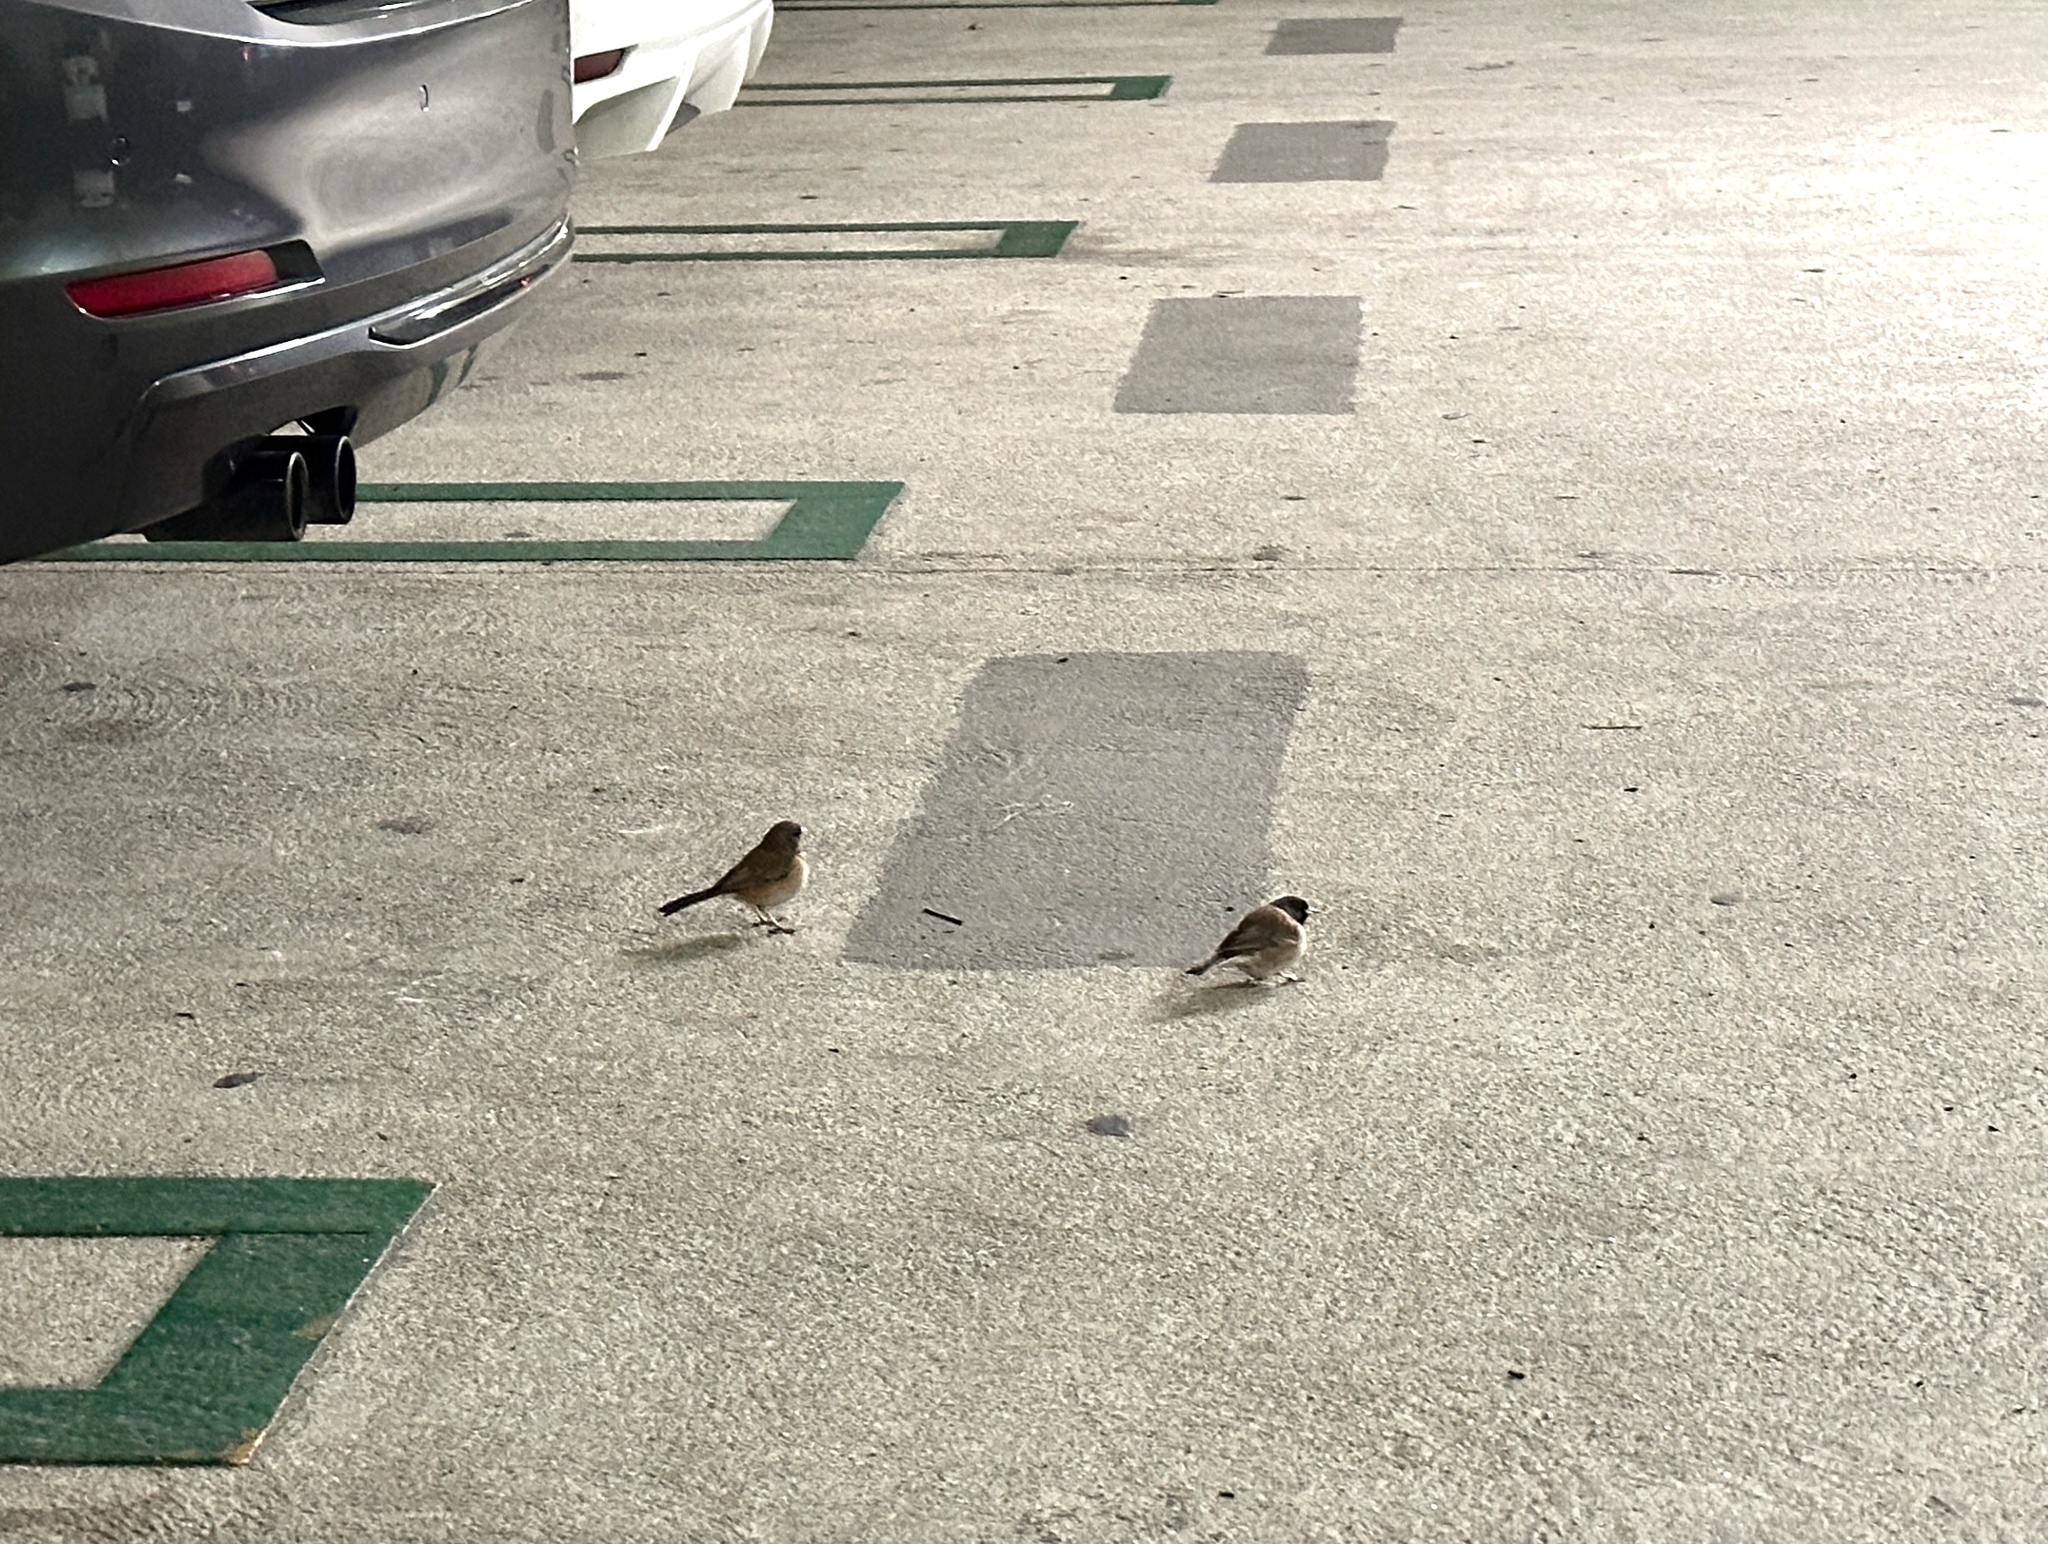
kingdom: Animalia
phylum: Chordata
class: Aves
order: Passeriformes
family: Passerellidae
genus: Junco
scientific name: Junco hyemalis
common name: Dark-eyed junco
